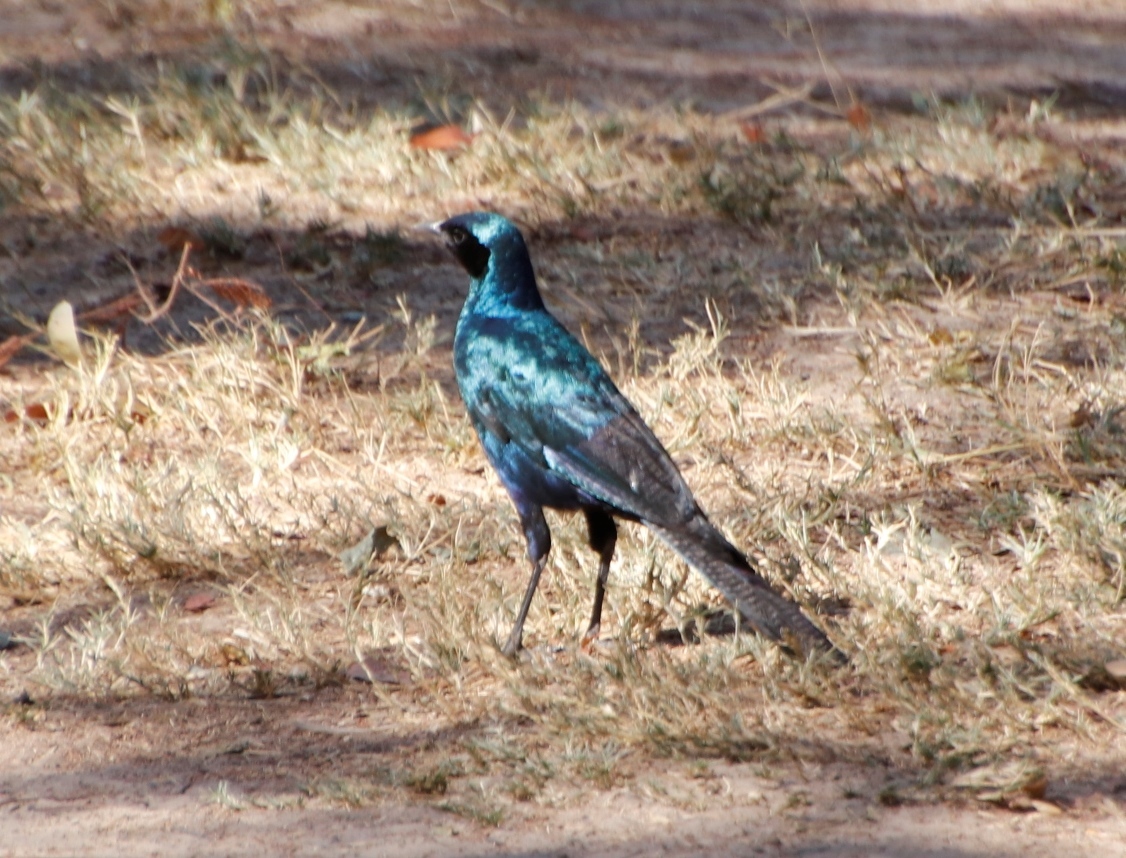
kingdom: Animalia
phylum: Chordata
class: Aves
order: Passeriformes
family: Sturnidae
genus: Lamprotornis
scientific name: Lamprotornis mevesii
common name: Meves's starling
